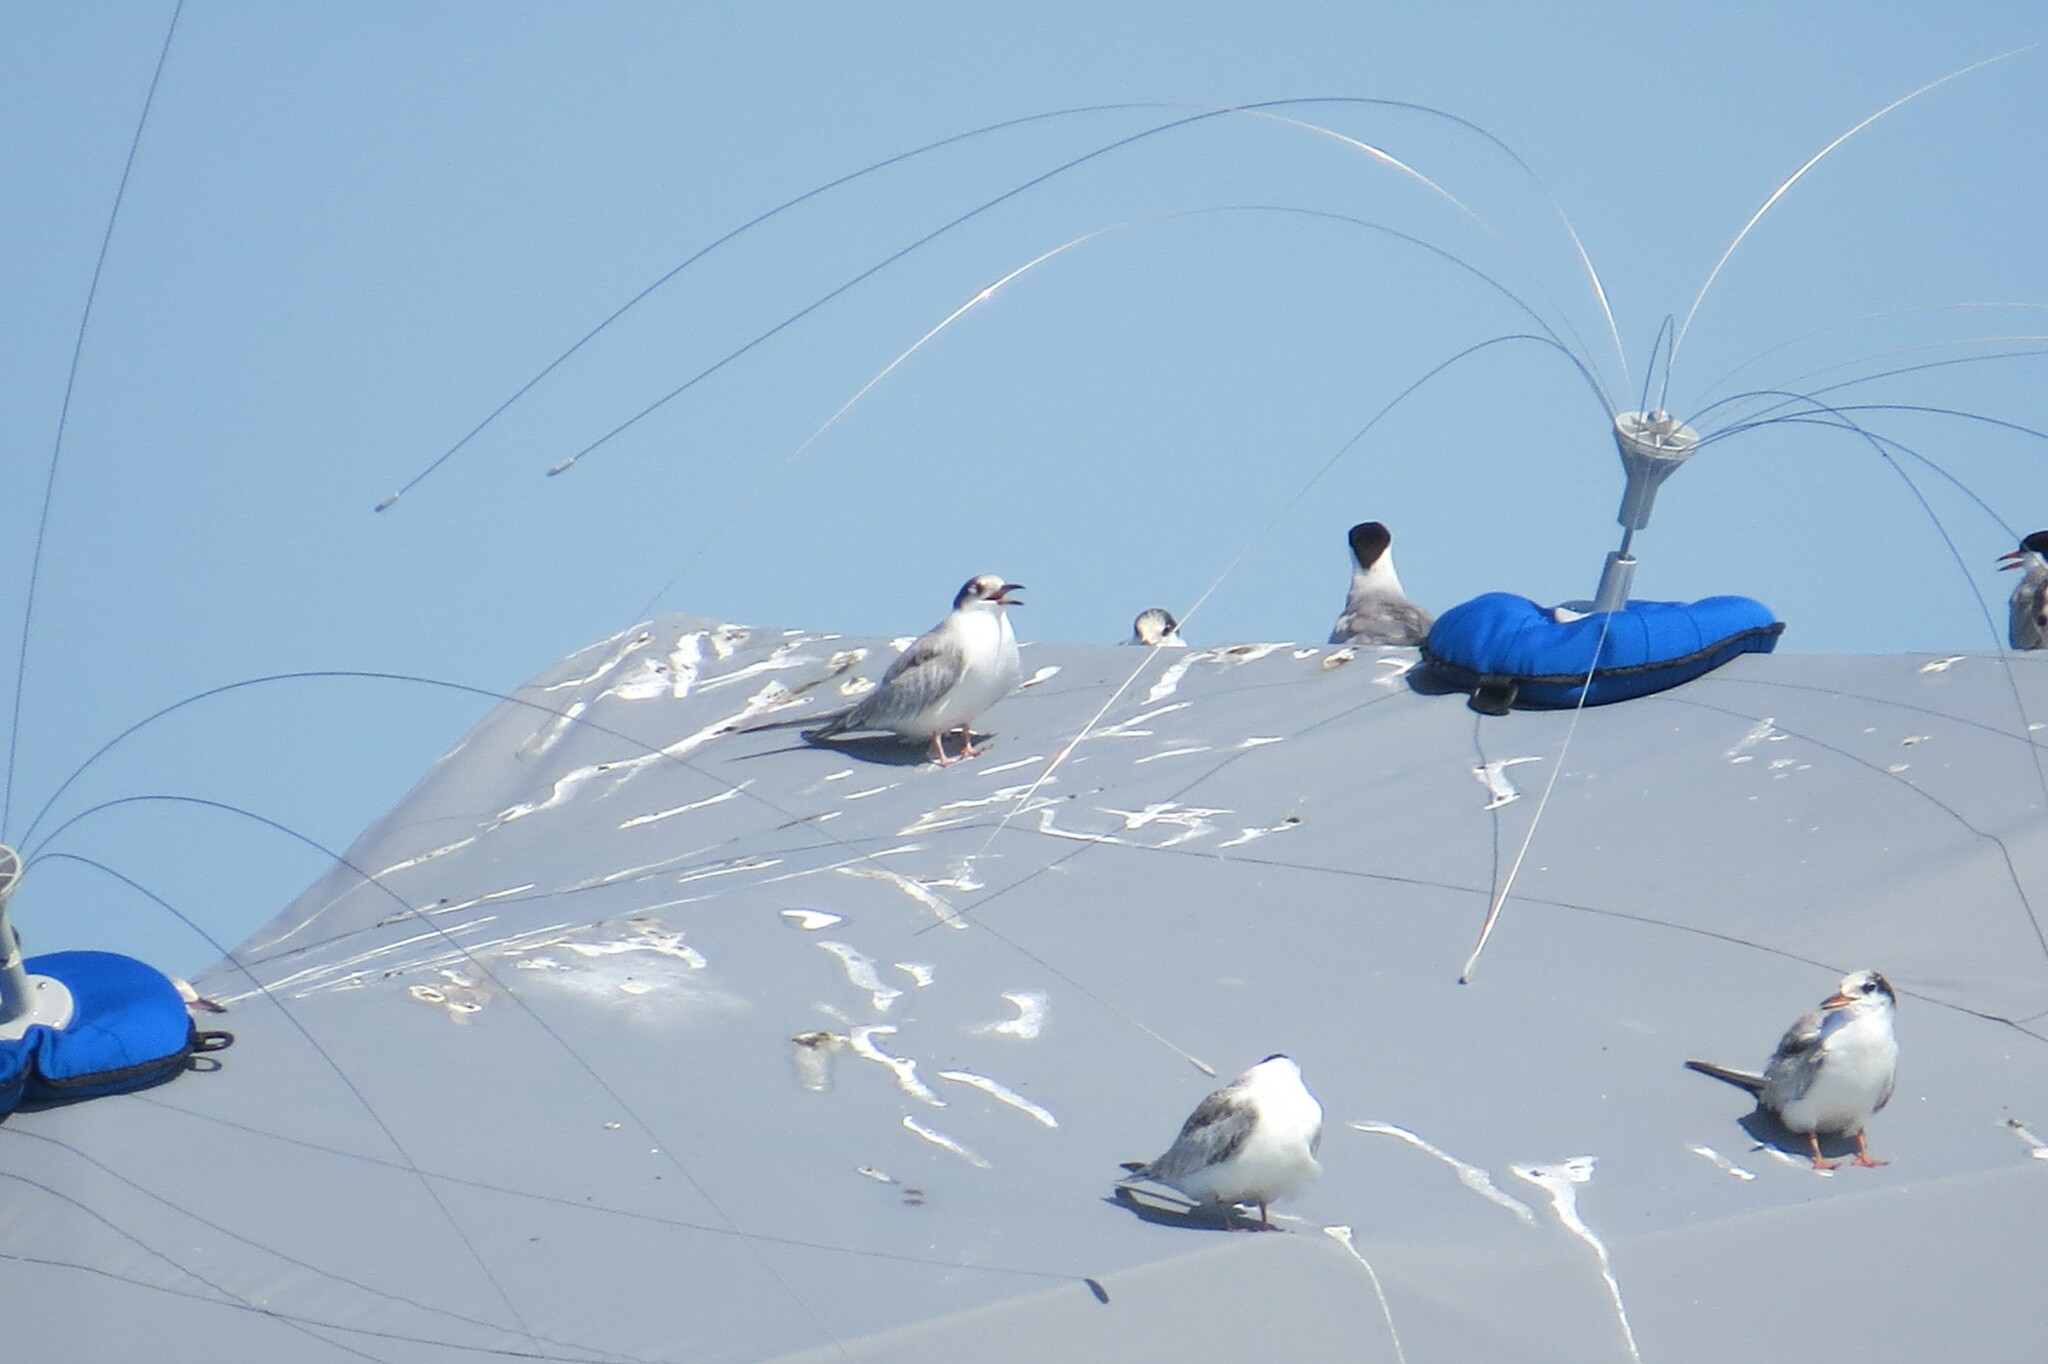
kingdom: Animalia
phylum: Chordata
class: Aves
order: Charadriiformes
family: Laridae
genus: Sterna
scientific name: Sterna hirundo
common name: Common tern
